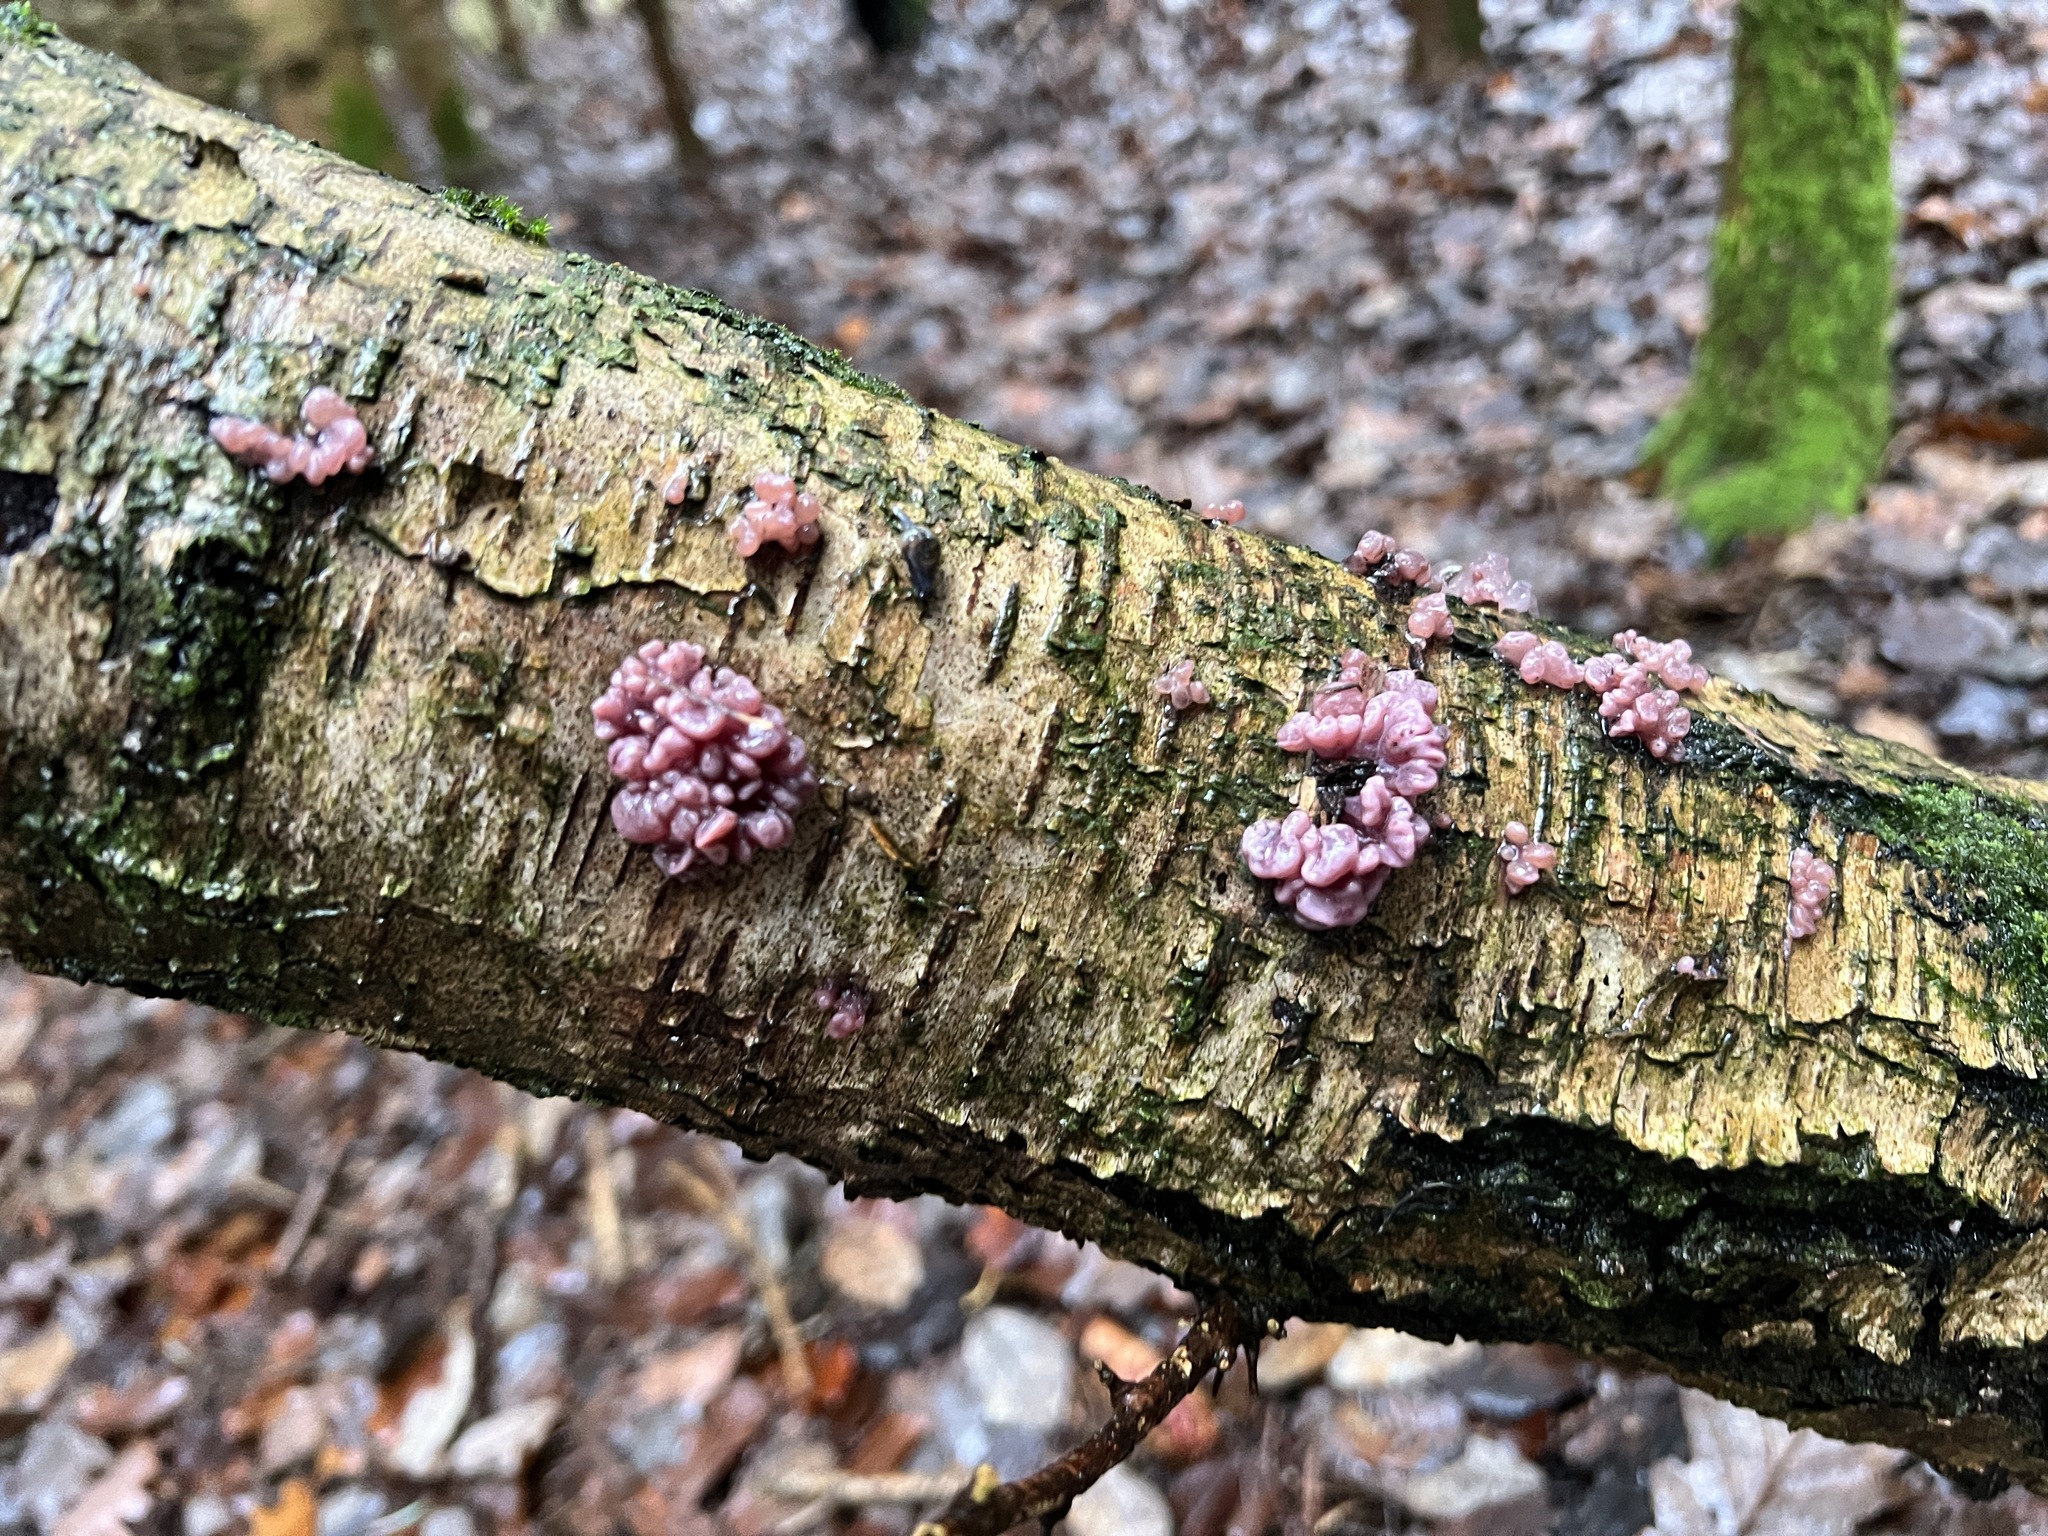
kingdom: Fungi
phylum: Ascomycota
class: Leotiomycetes
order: Helotiales
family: Gelatinodiscaceae
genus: Ascocoryne
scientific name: Ascocoryne sarcoides
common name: Purple jellydisc
